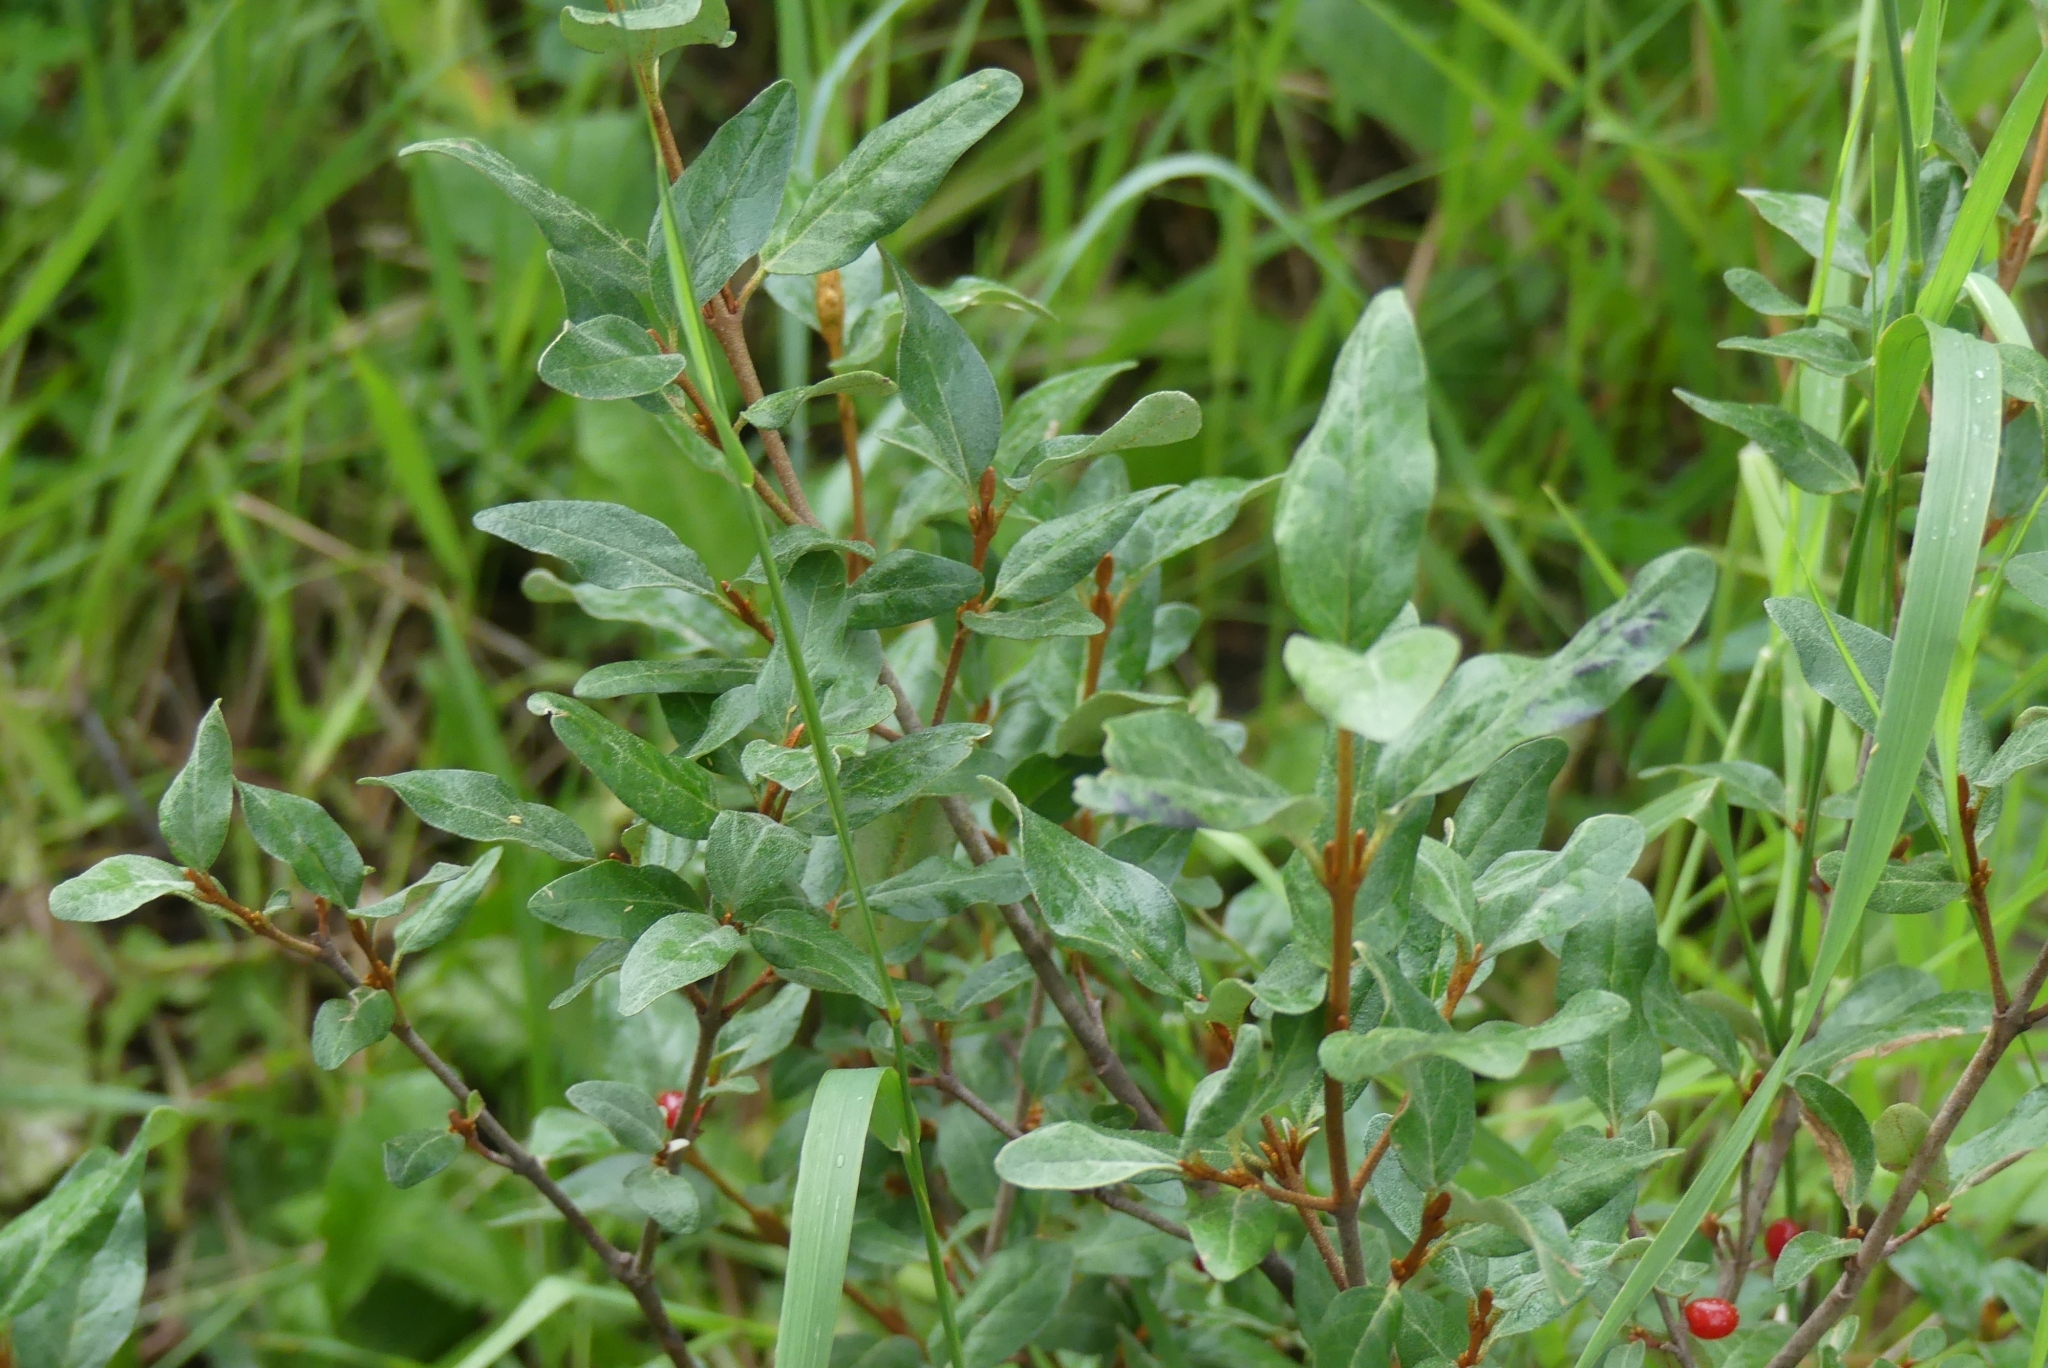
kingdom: Plantae
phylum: Tracheophyta
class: Magnoliopsida
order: Rosales
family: Elaeagnaceae
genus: Shepherdia
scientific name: Shepherdia canadensis
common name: Soapberry
